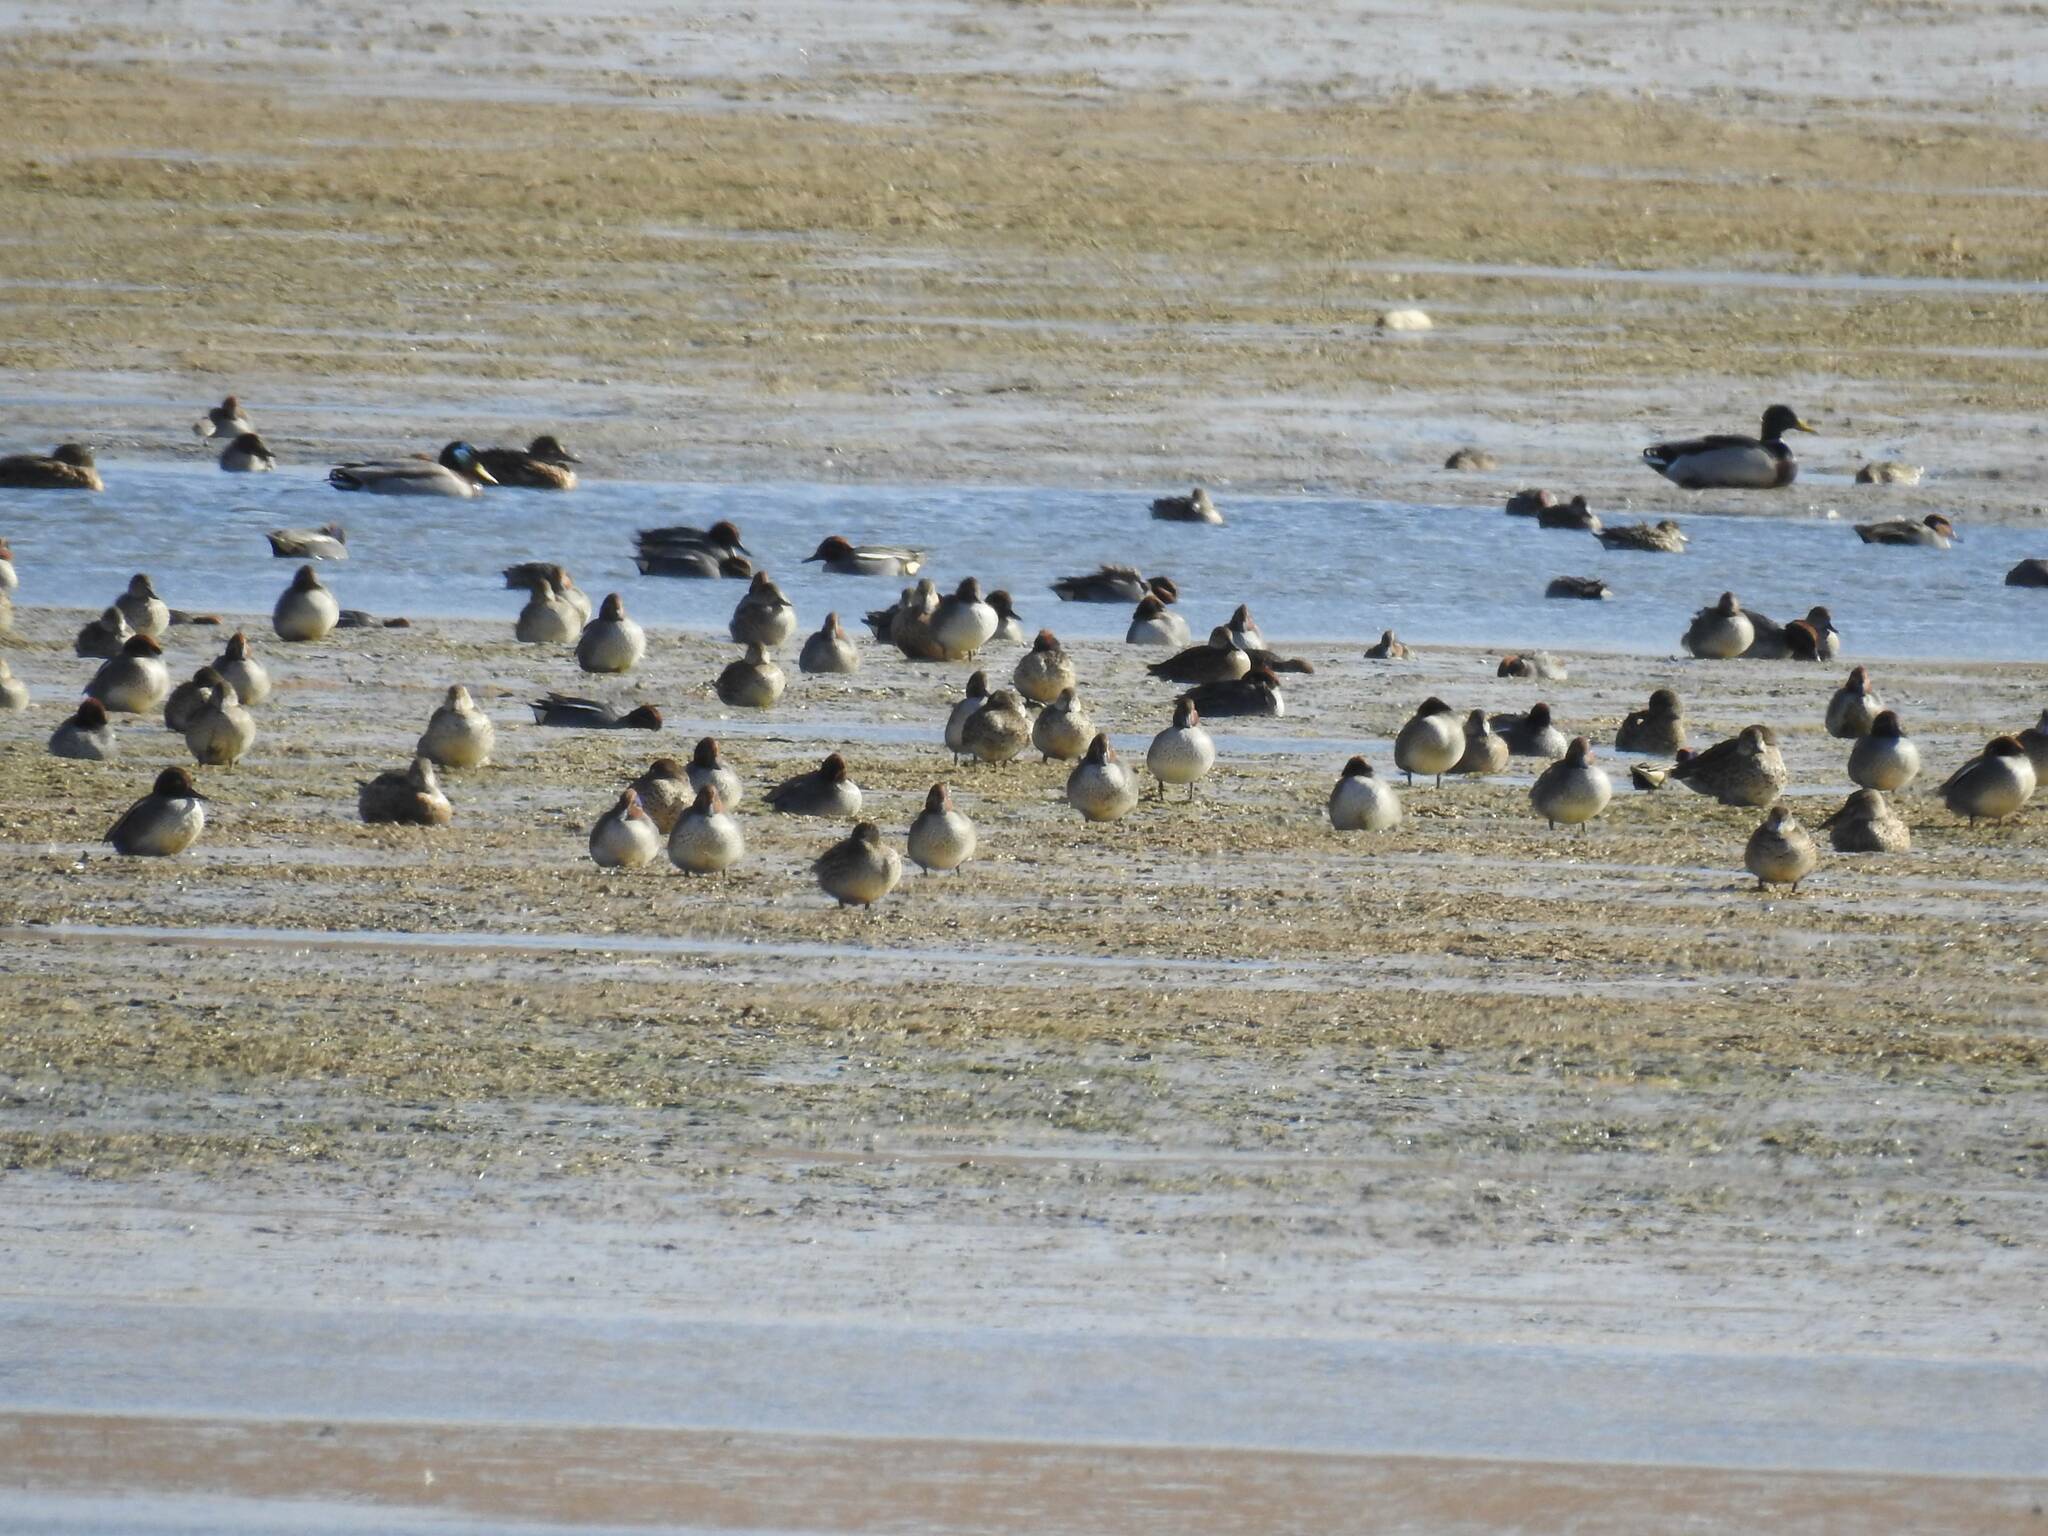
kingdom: Animalia
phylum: Chordata
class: Aves
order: Anseriformes
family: Anatidae
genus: Anas
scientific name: Anas crecca
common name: Eurasian teal
